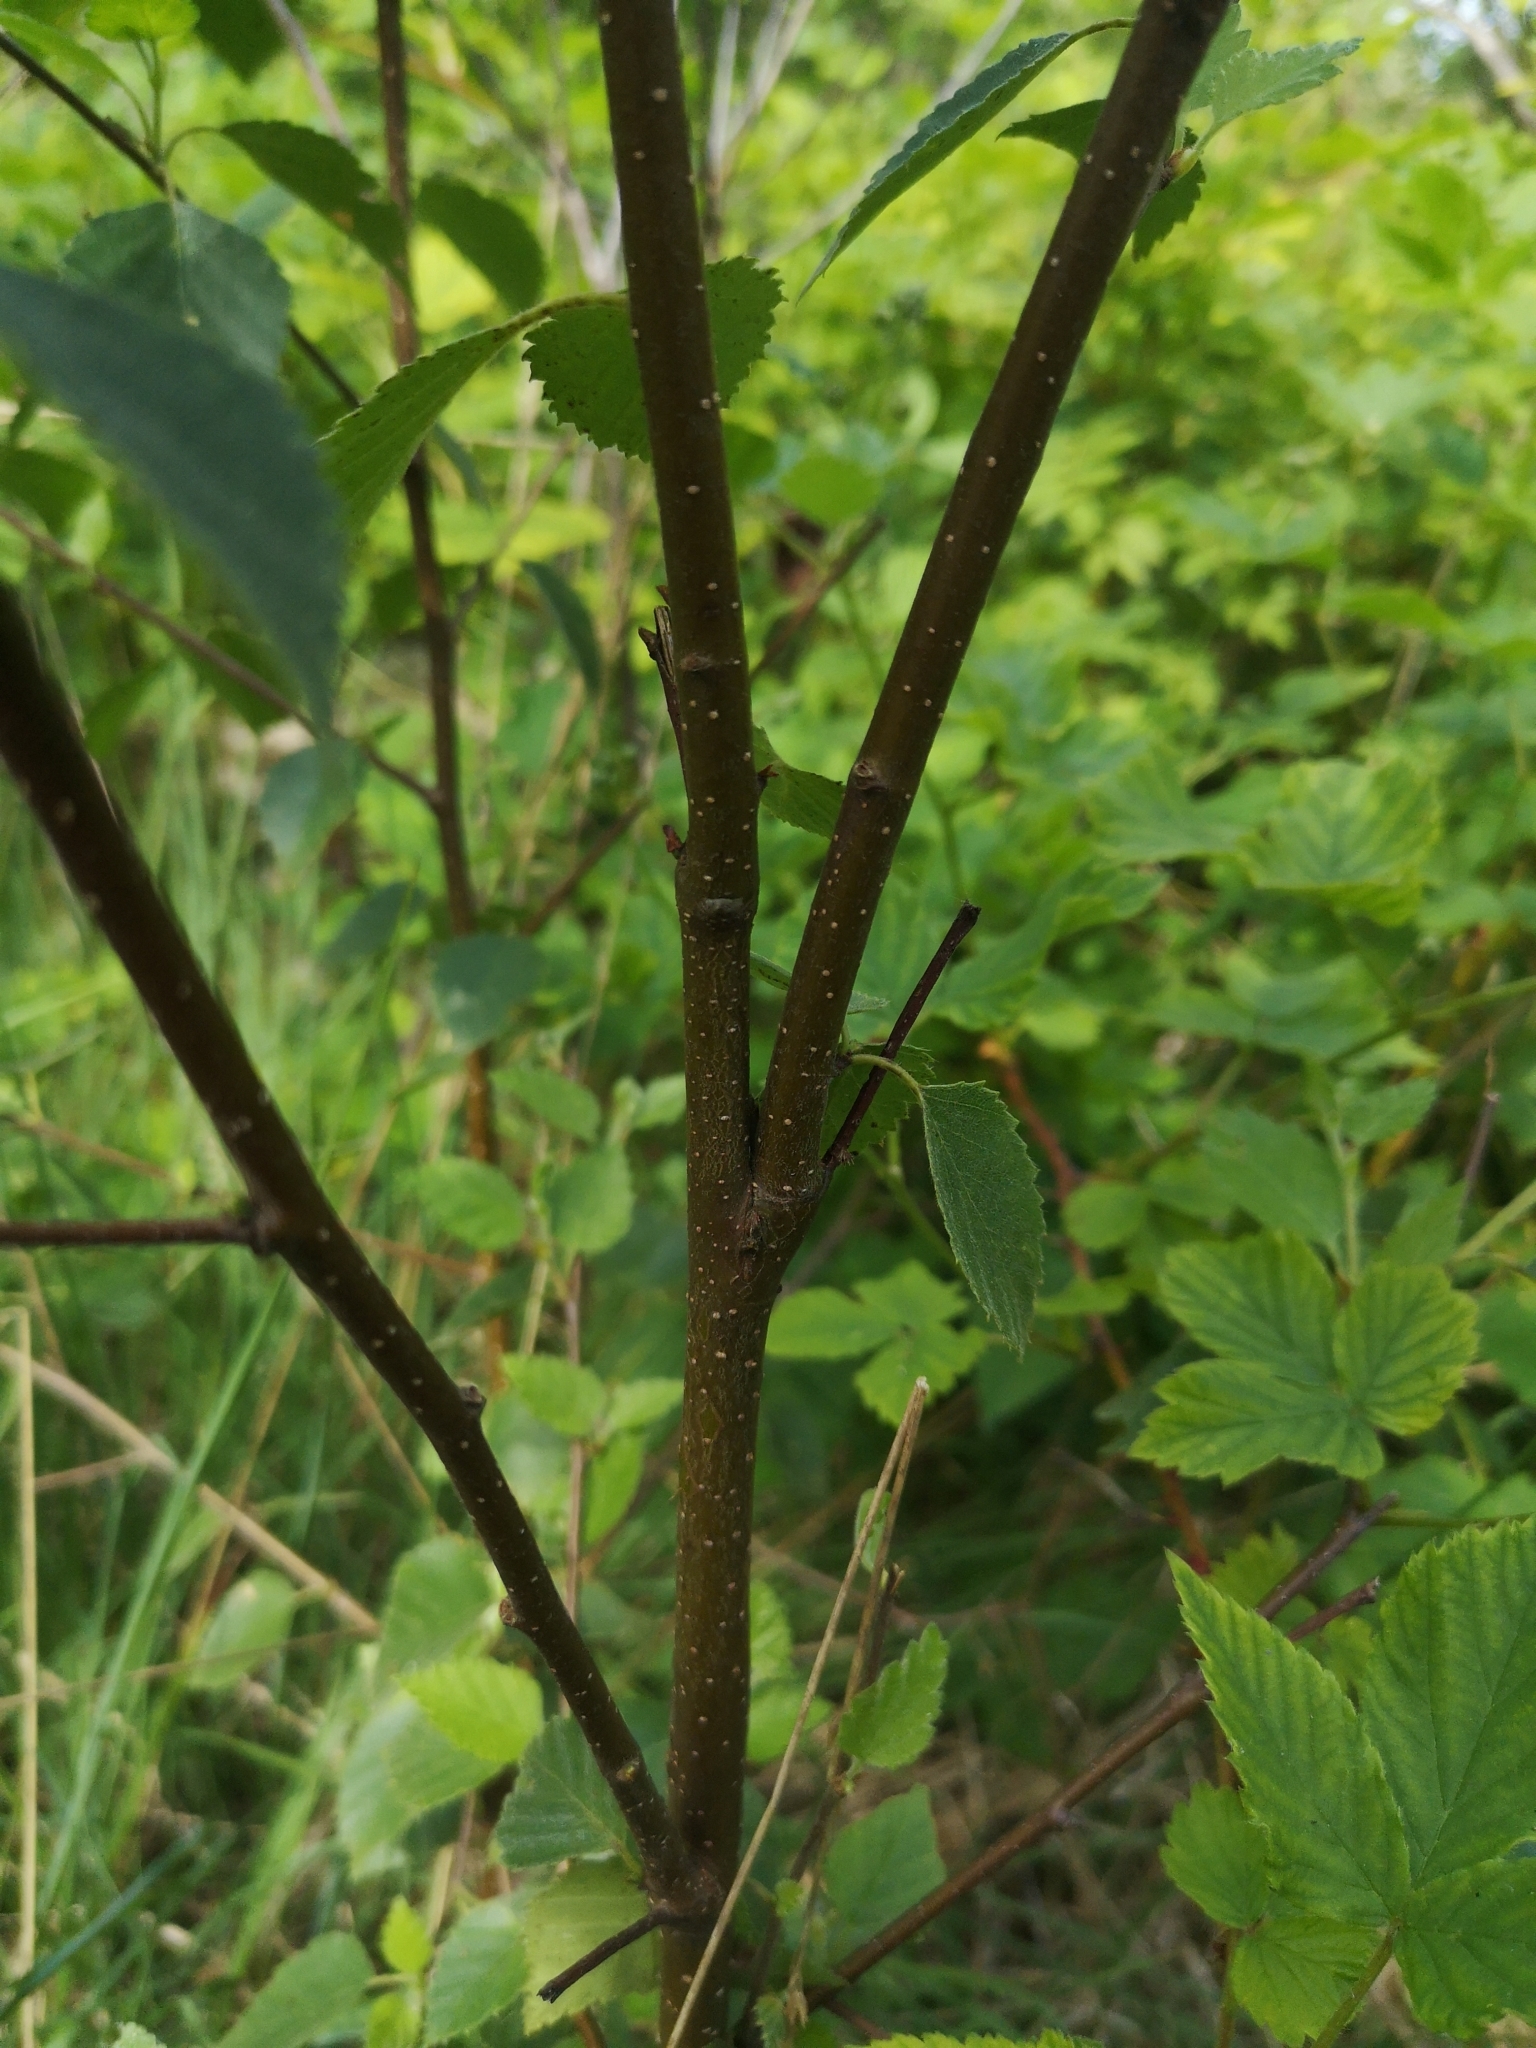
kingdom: Plantae
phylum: Tracheophyta
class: Magnoliopsida
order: Fagales
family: Betulaceae
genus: Betula
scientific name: Betula pubescens
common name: Downy birch
